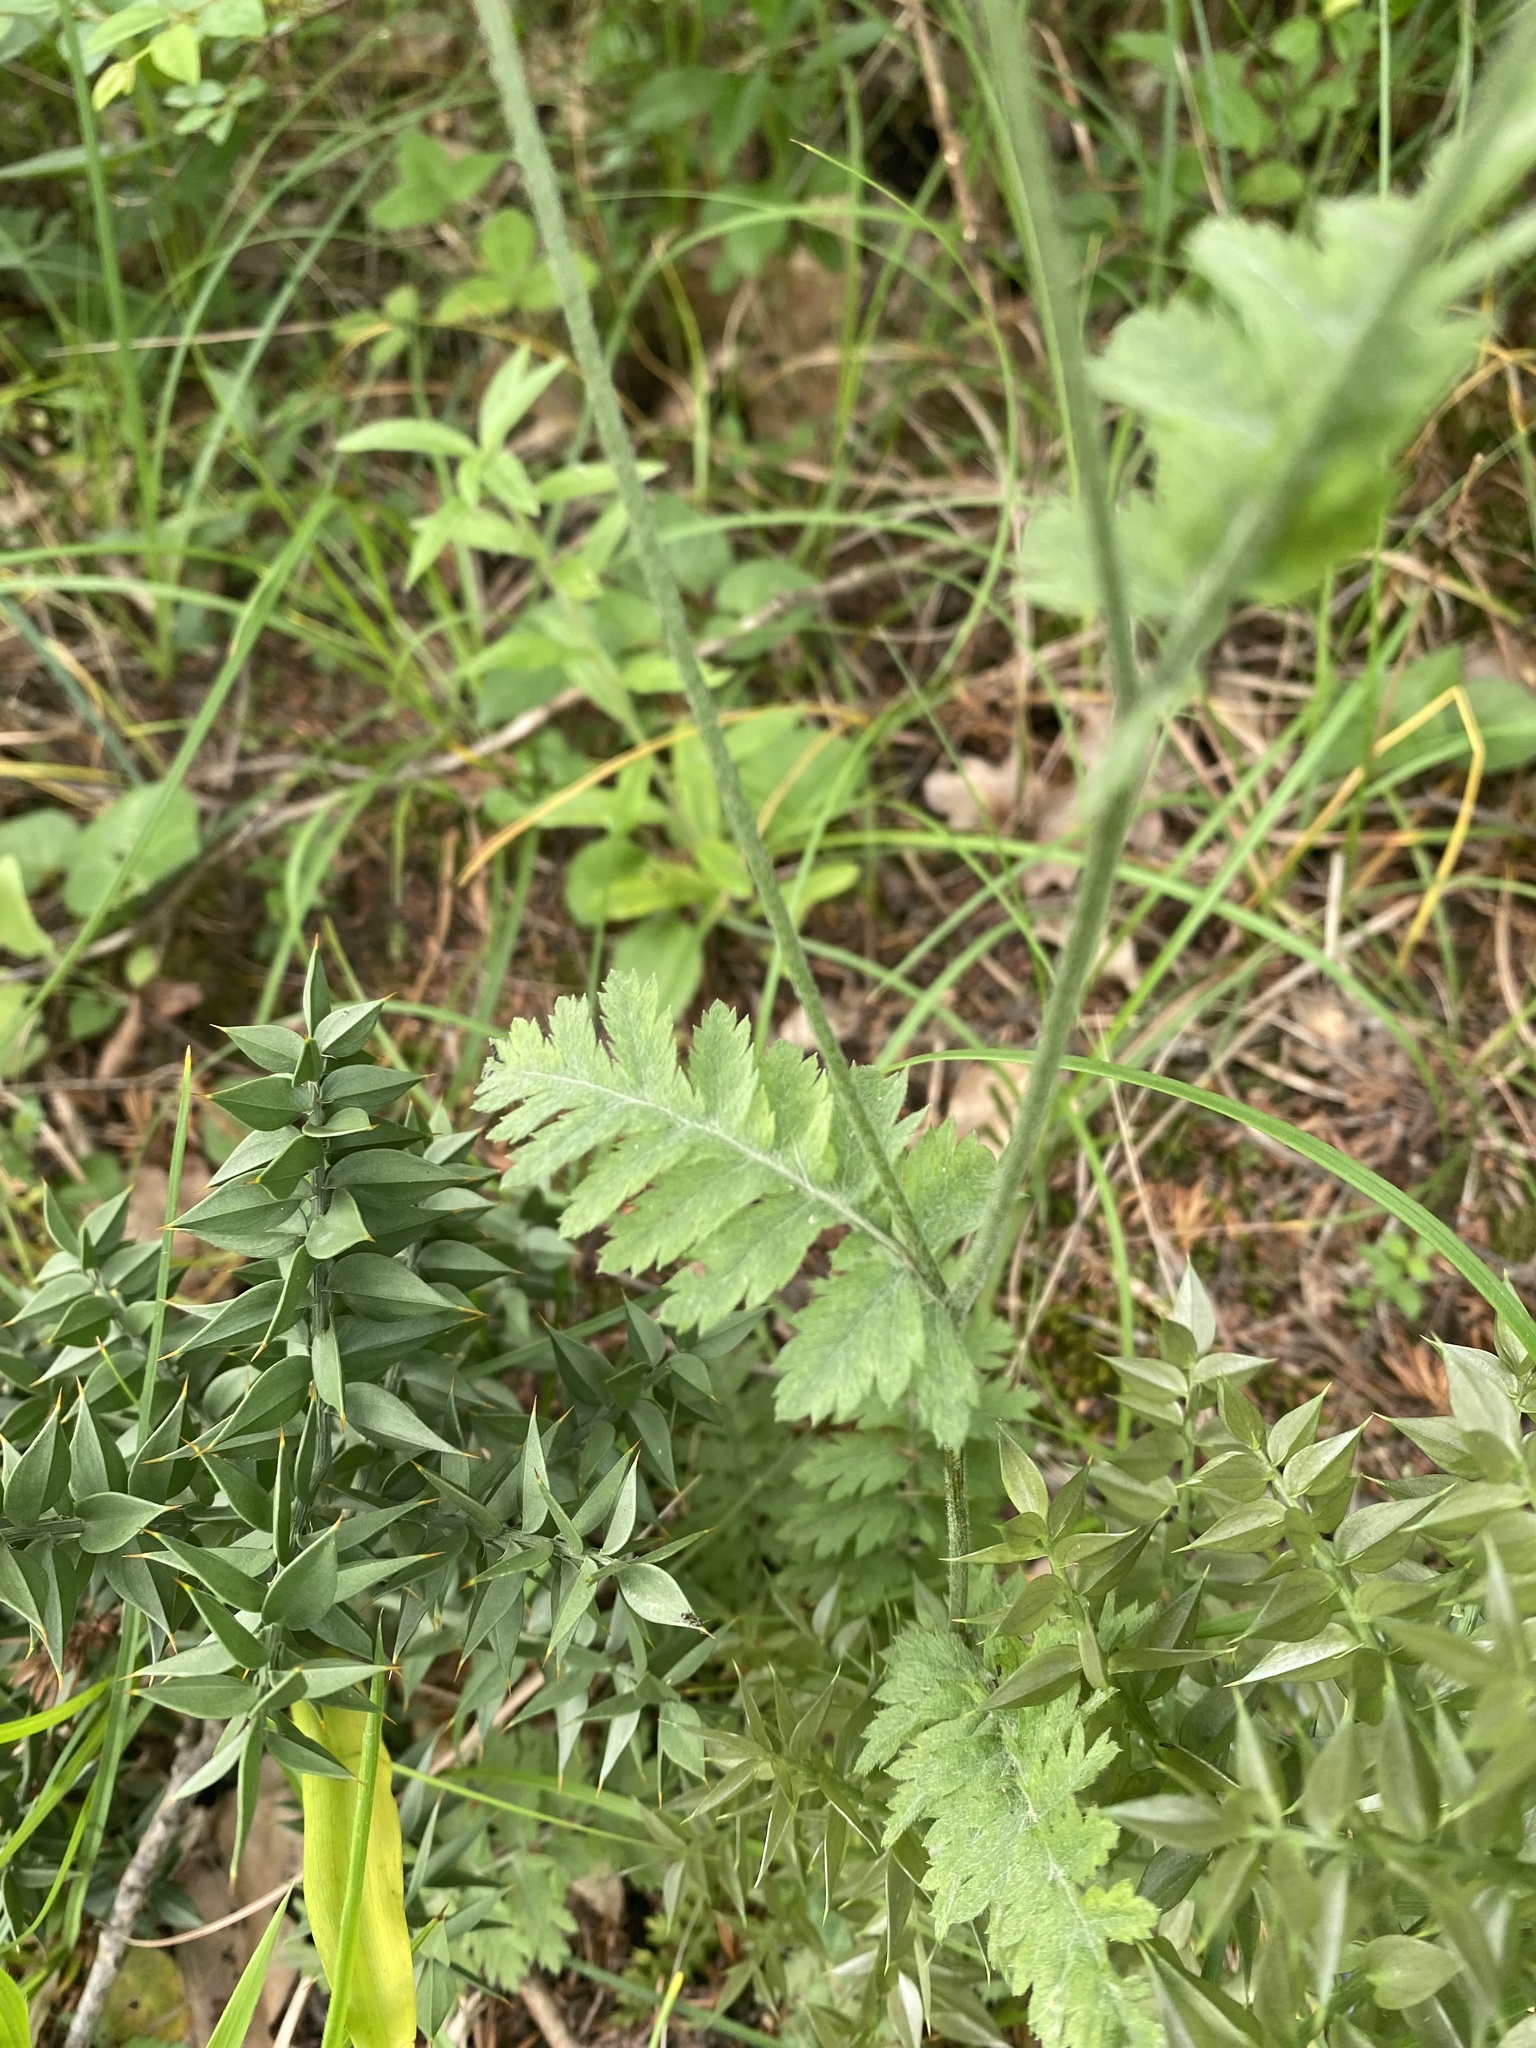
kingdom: Plantae
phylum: Tracheophyta
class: Magnoliopsida
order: Asterales
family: Asteraceae
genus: Tanacetum
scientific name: Tanacetum poteriifolium
